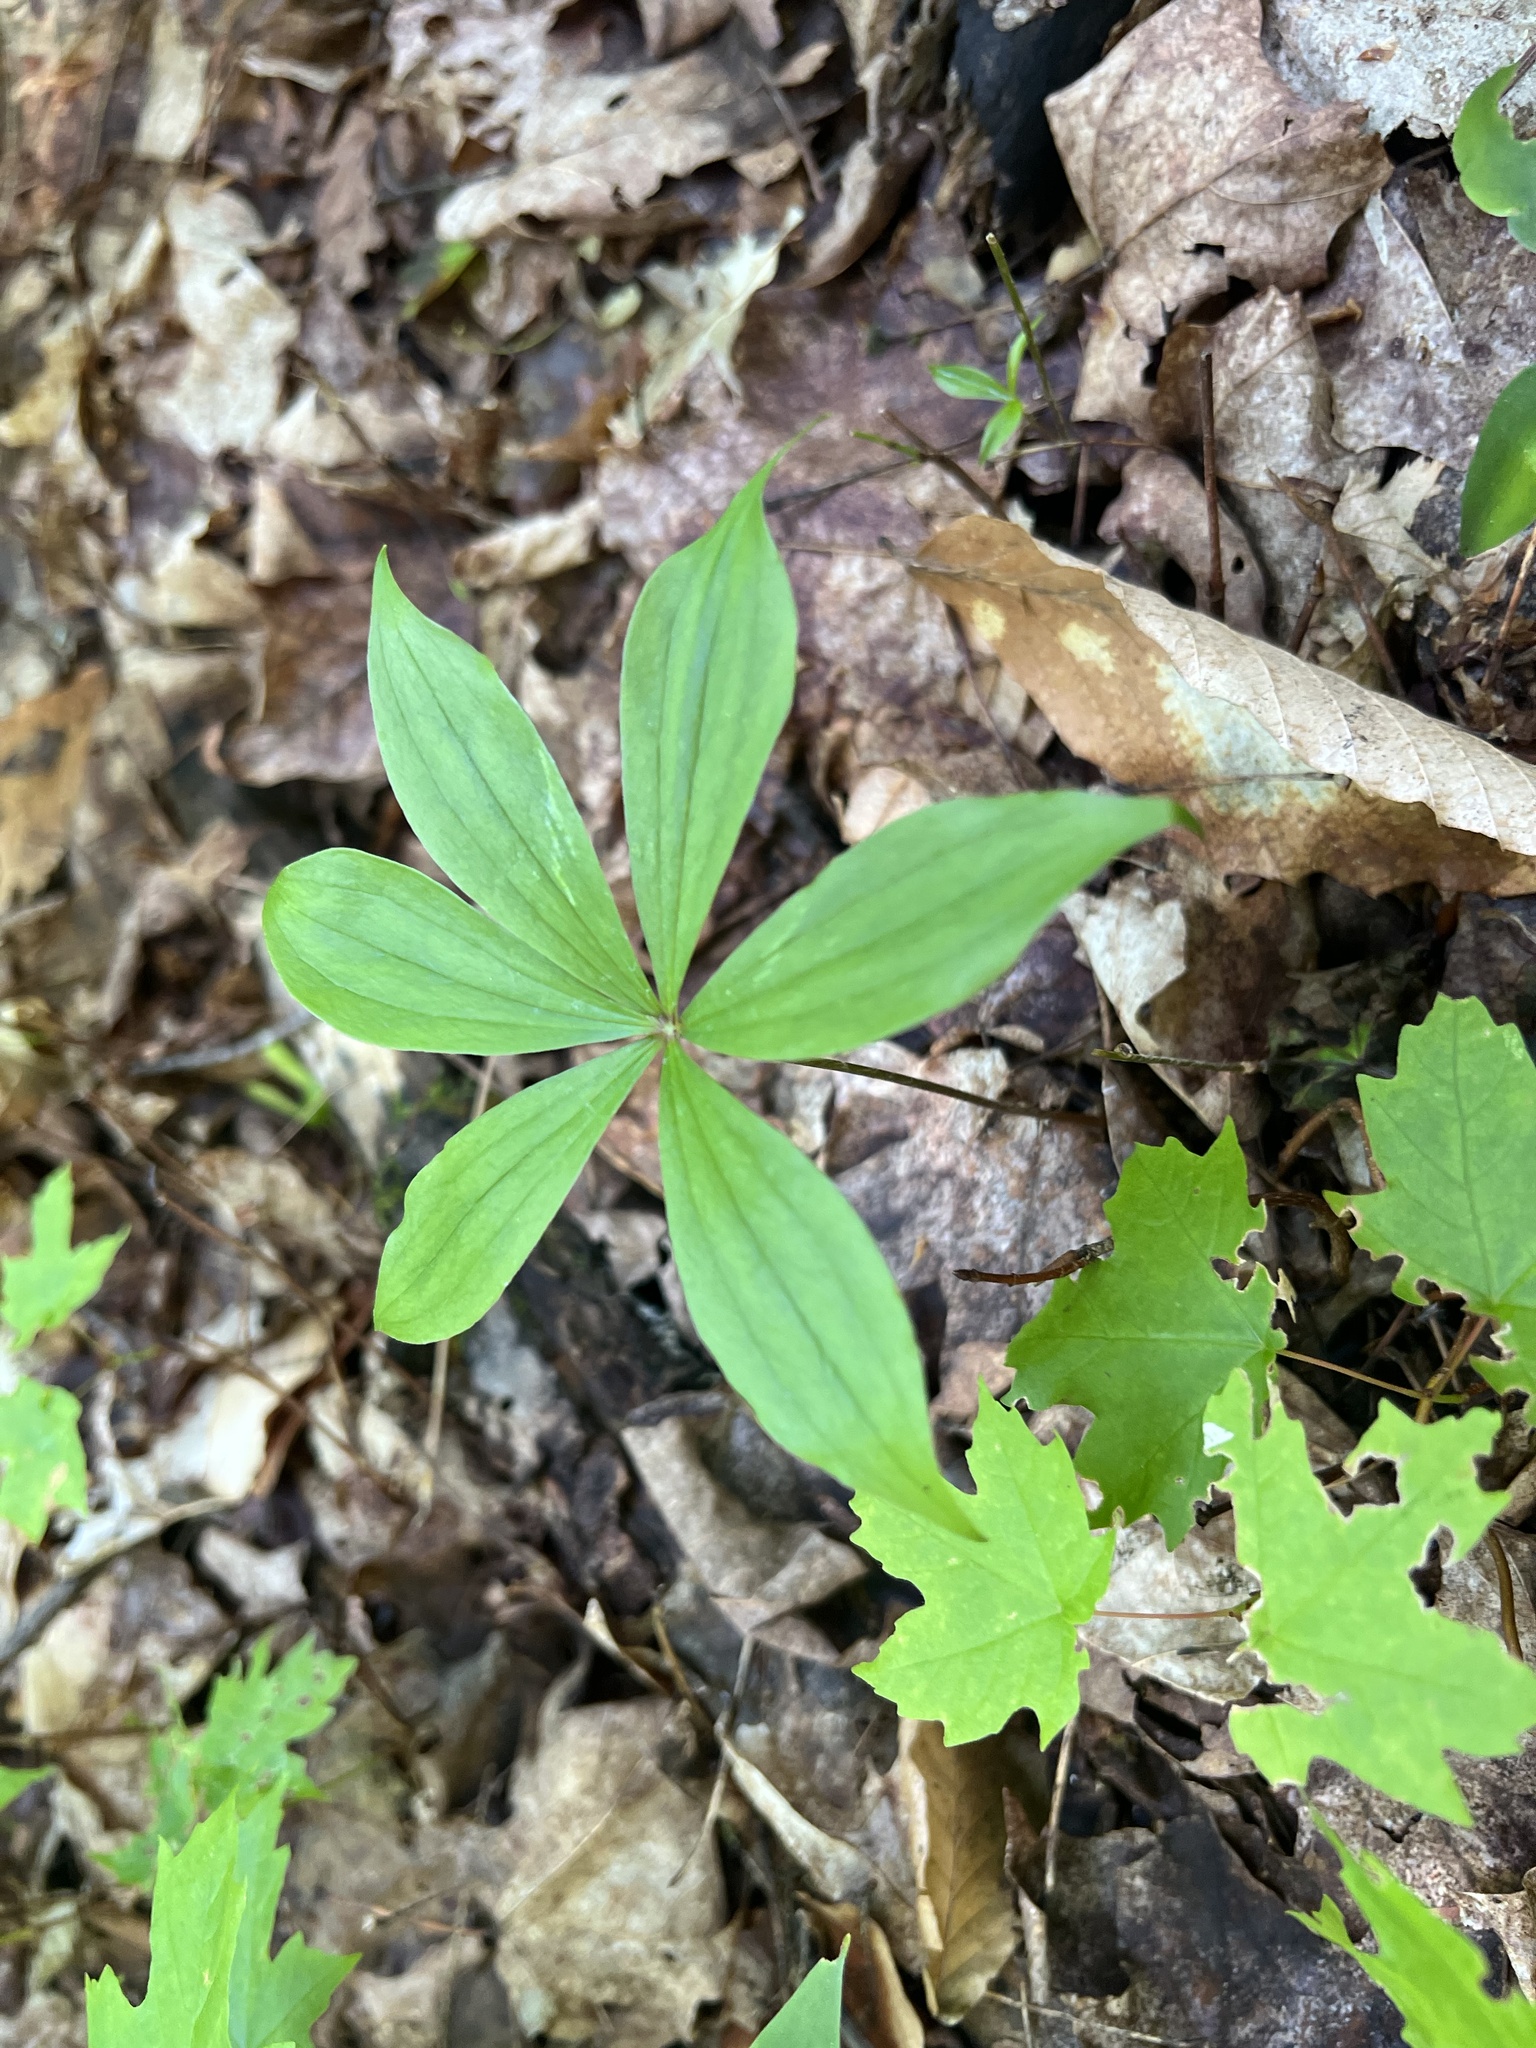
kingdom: Plantae
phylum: Tracheophyta
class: Liliopsida
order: Liliales
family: Liliaceae
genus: Medeola
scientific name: Medeola virginiana
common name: Indian cucumber-root
